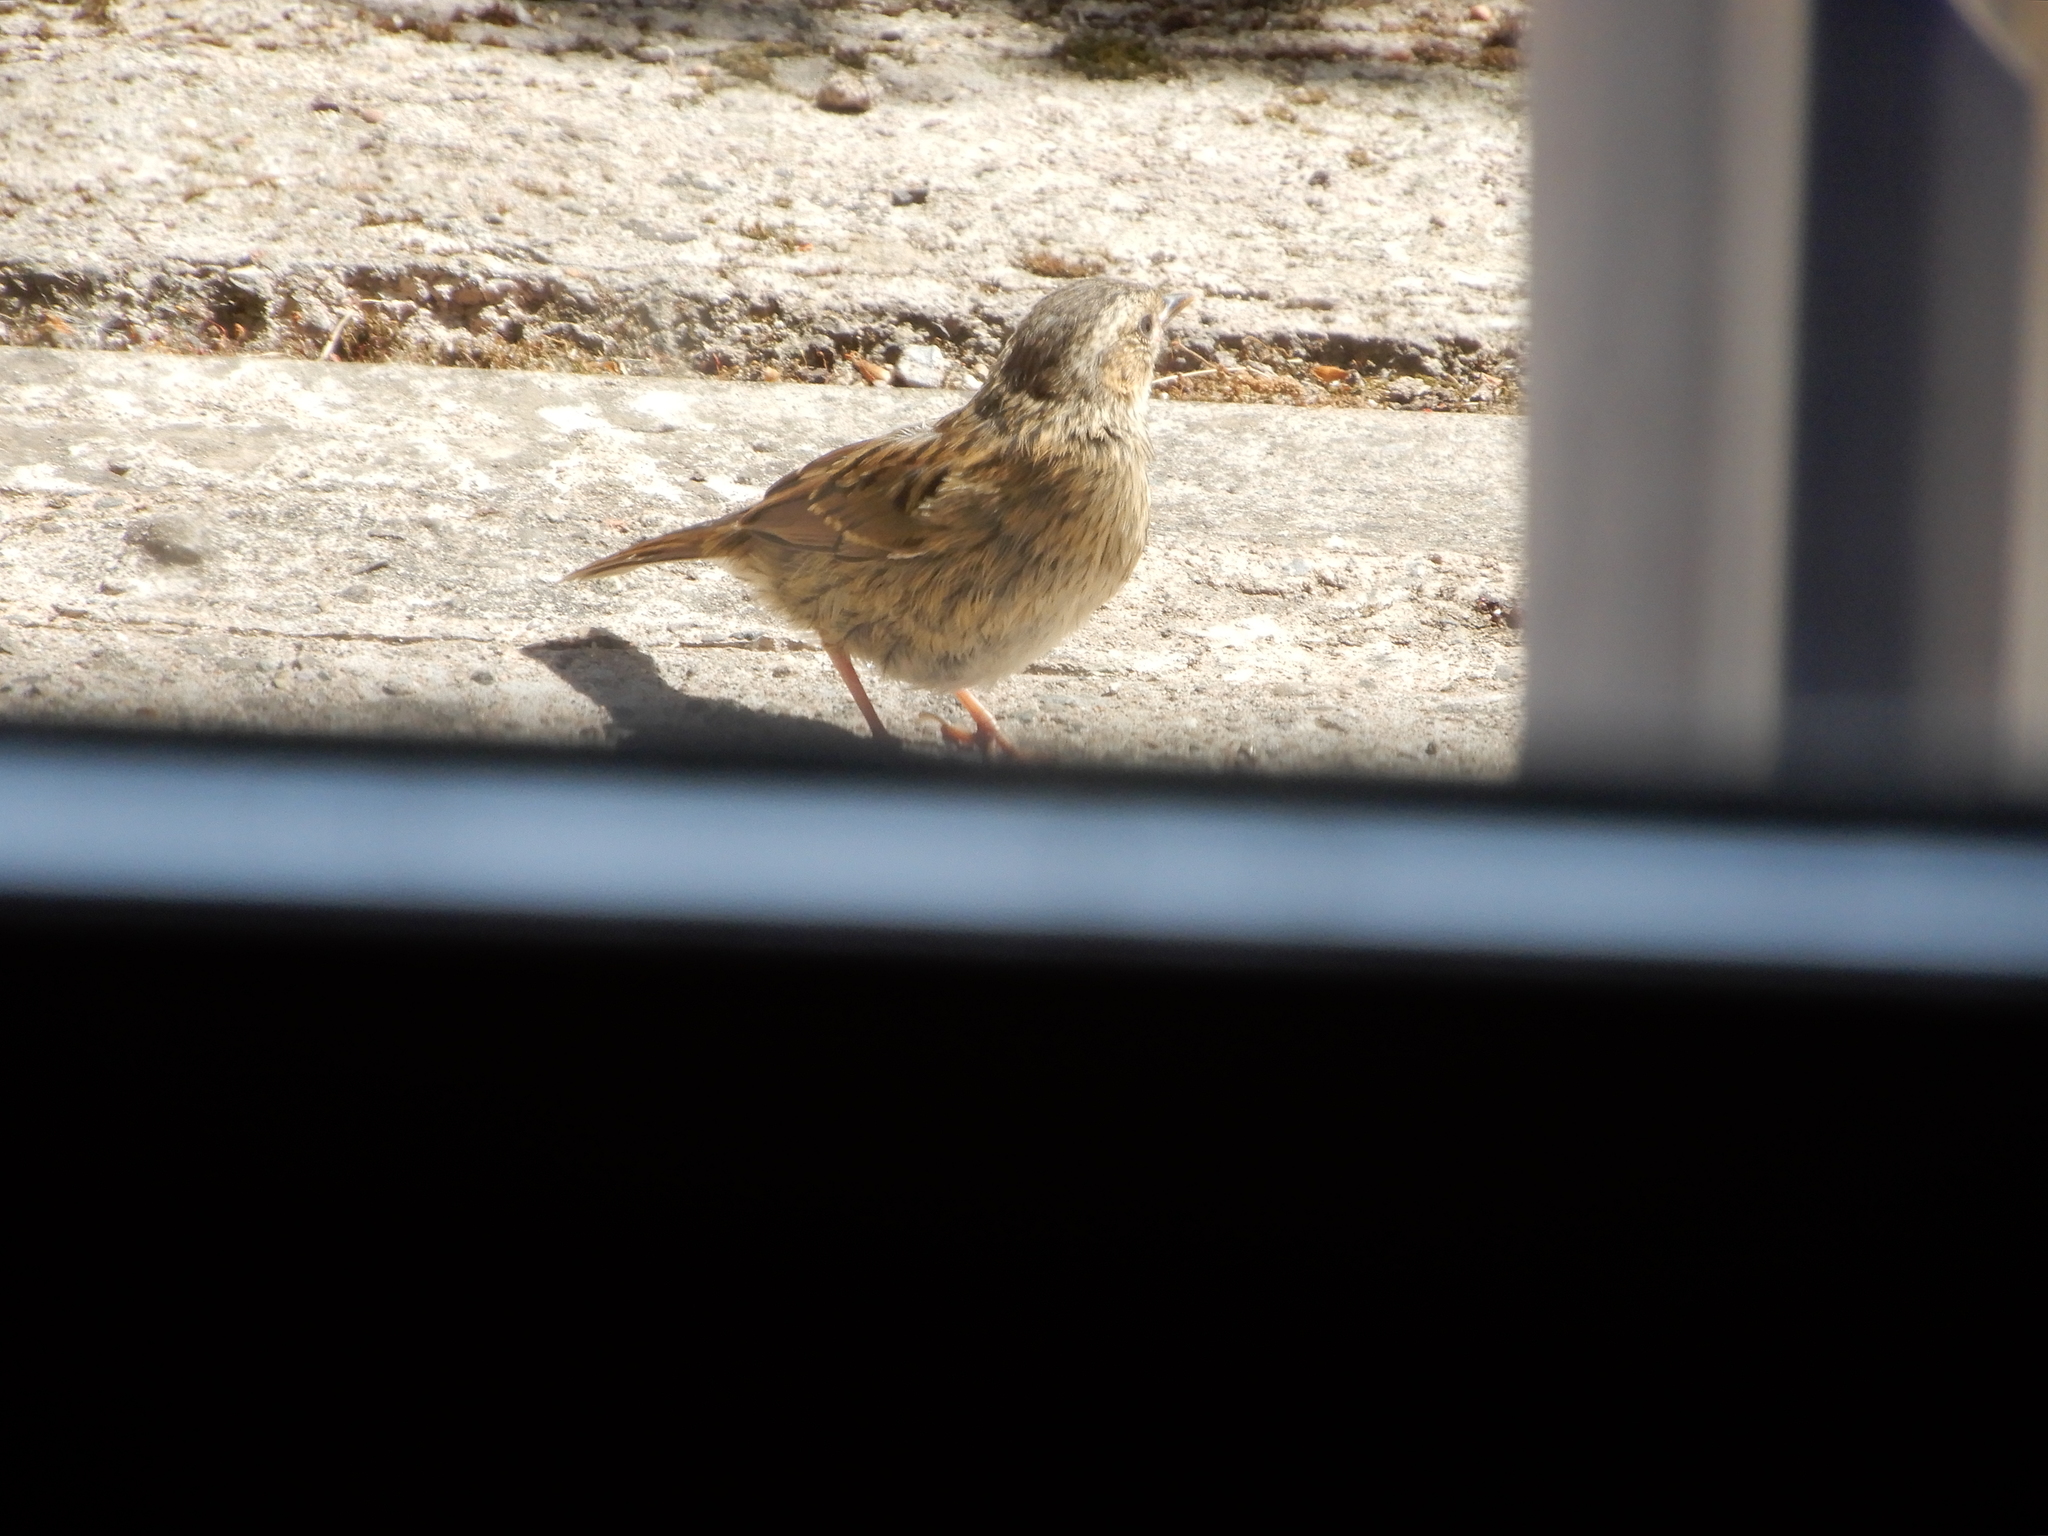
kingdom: Animalia
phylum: Chordata
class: Aves
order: Passeriformes
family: Prunellidae
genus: Prunella
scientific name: Prunella modularis
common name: Dunnock
